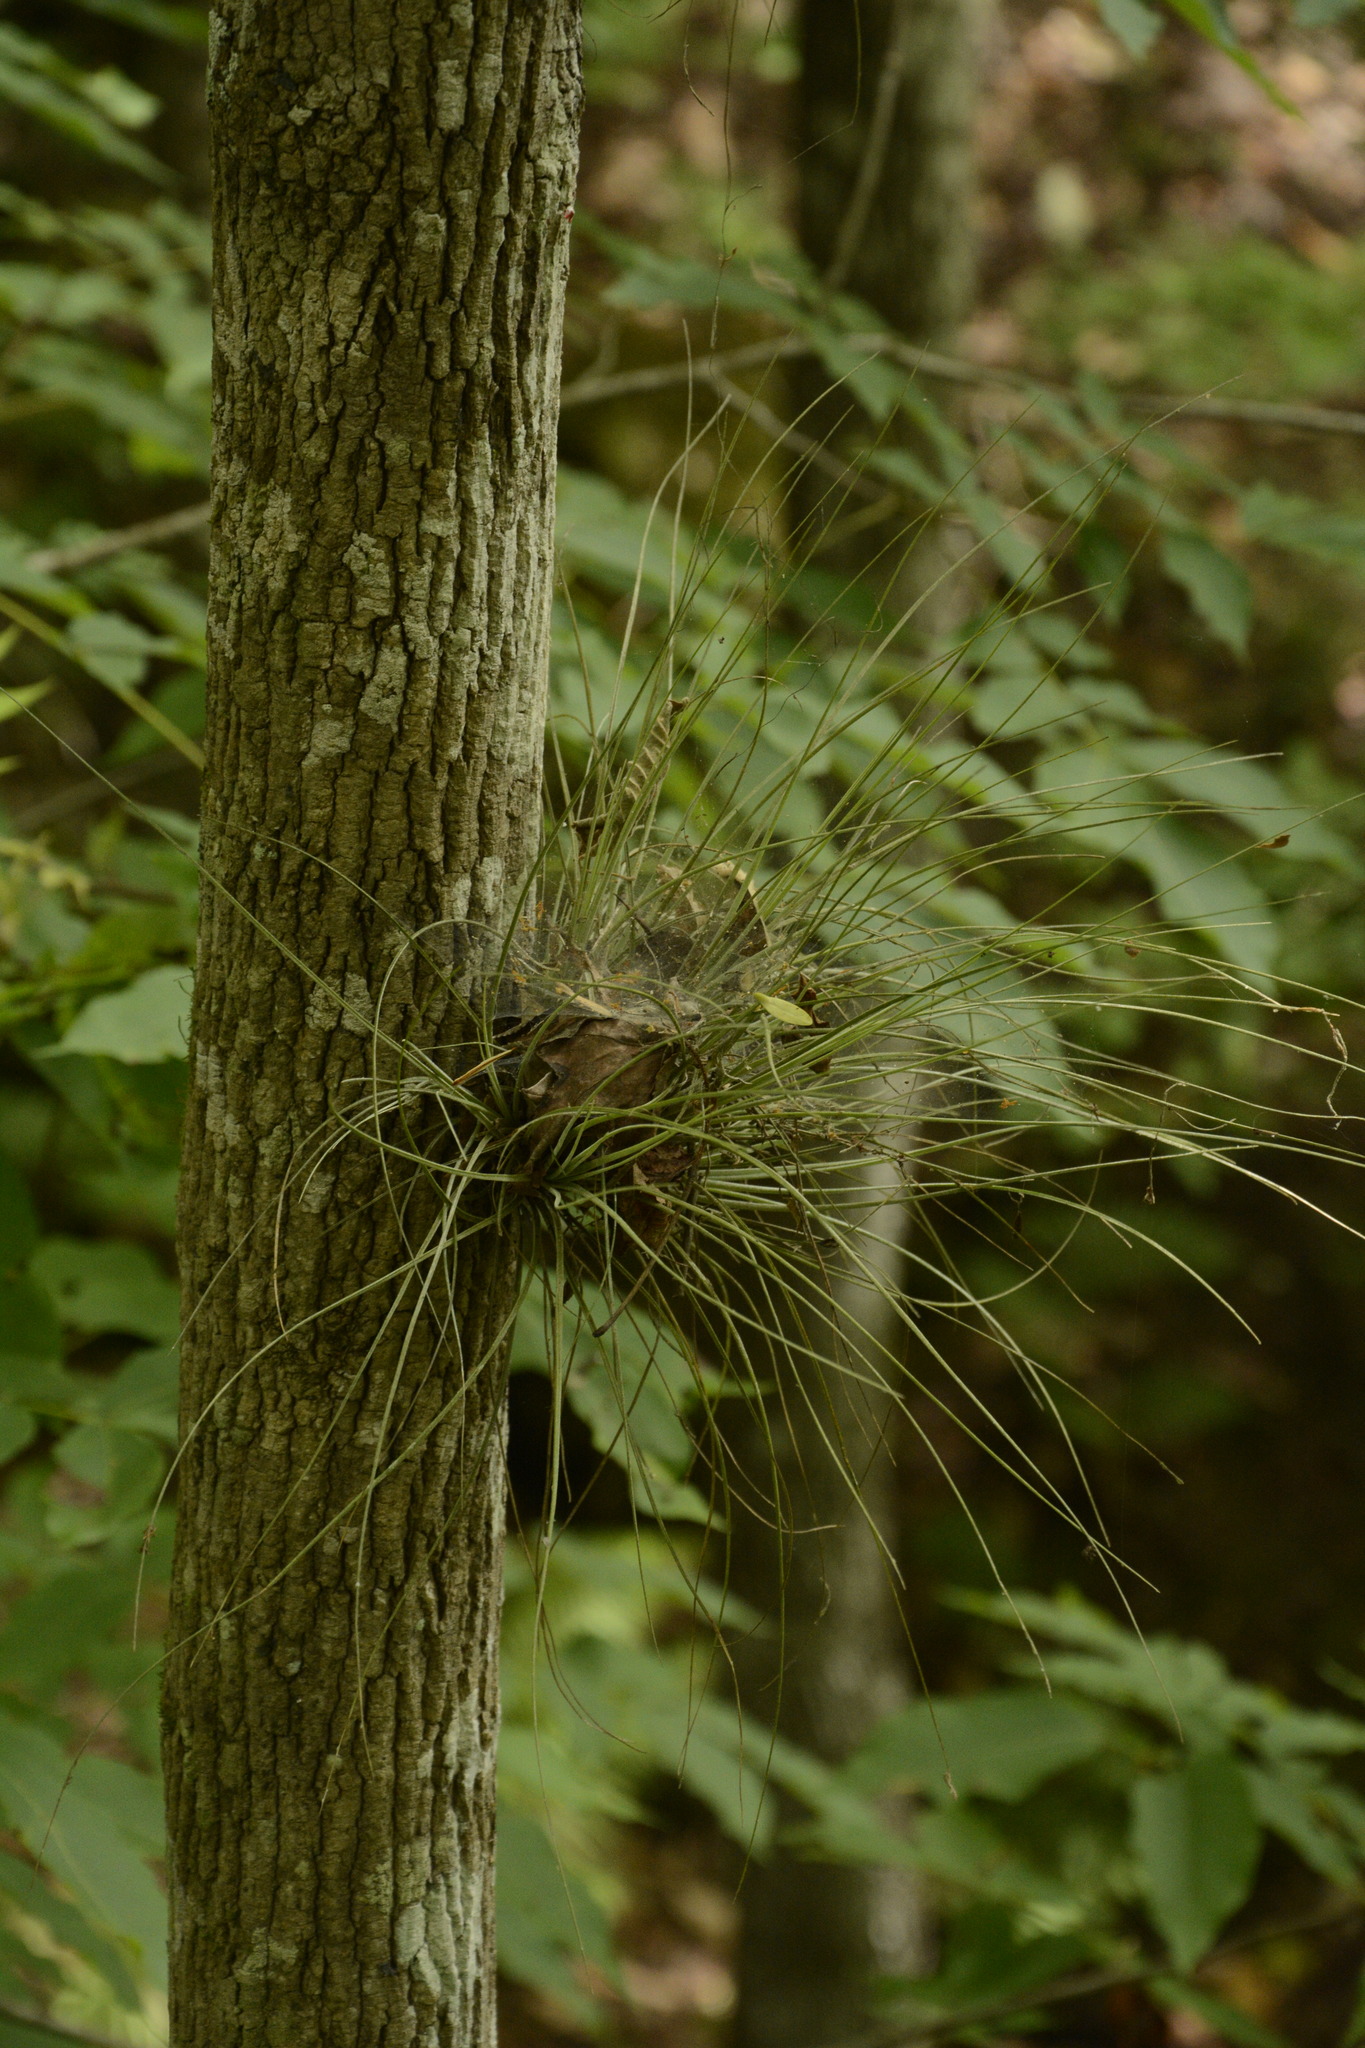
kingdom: Plantae
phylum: Tracheophyta
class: Liliopsida
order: Poales
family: Bromeliaceae
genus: Tillandsia
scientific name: Tillandsia bartramii
